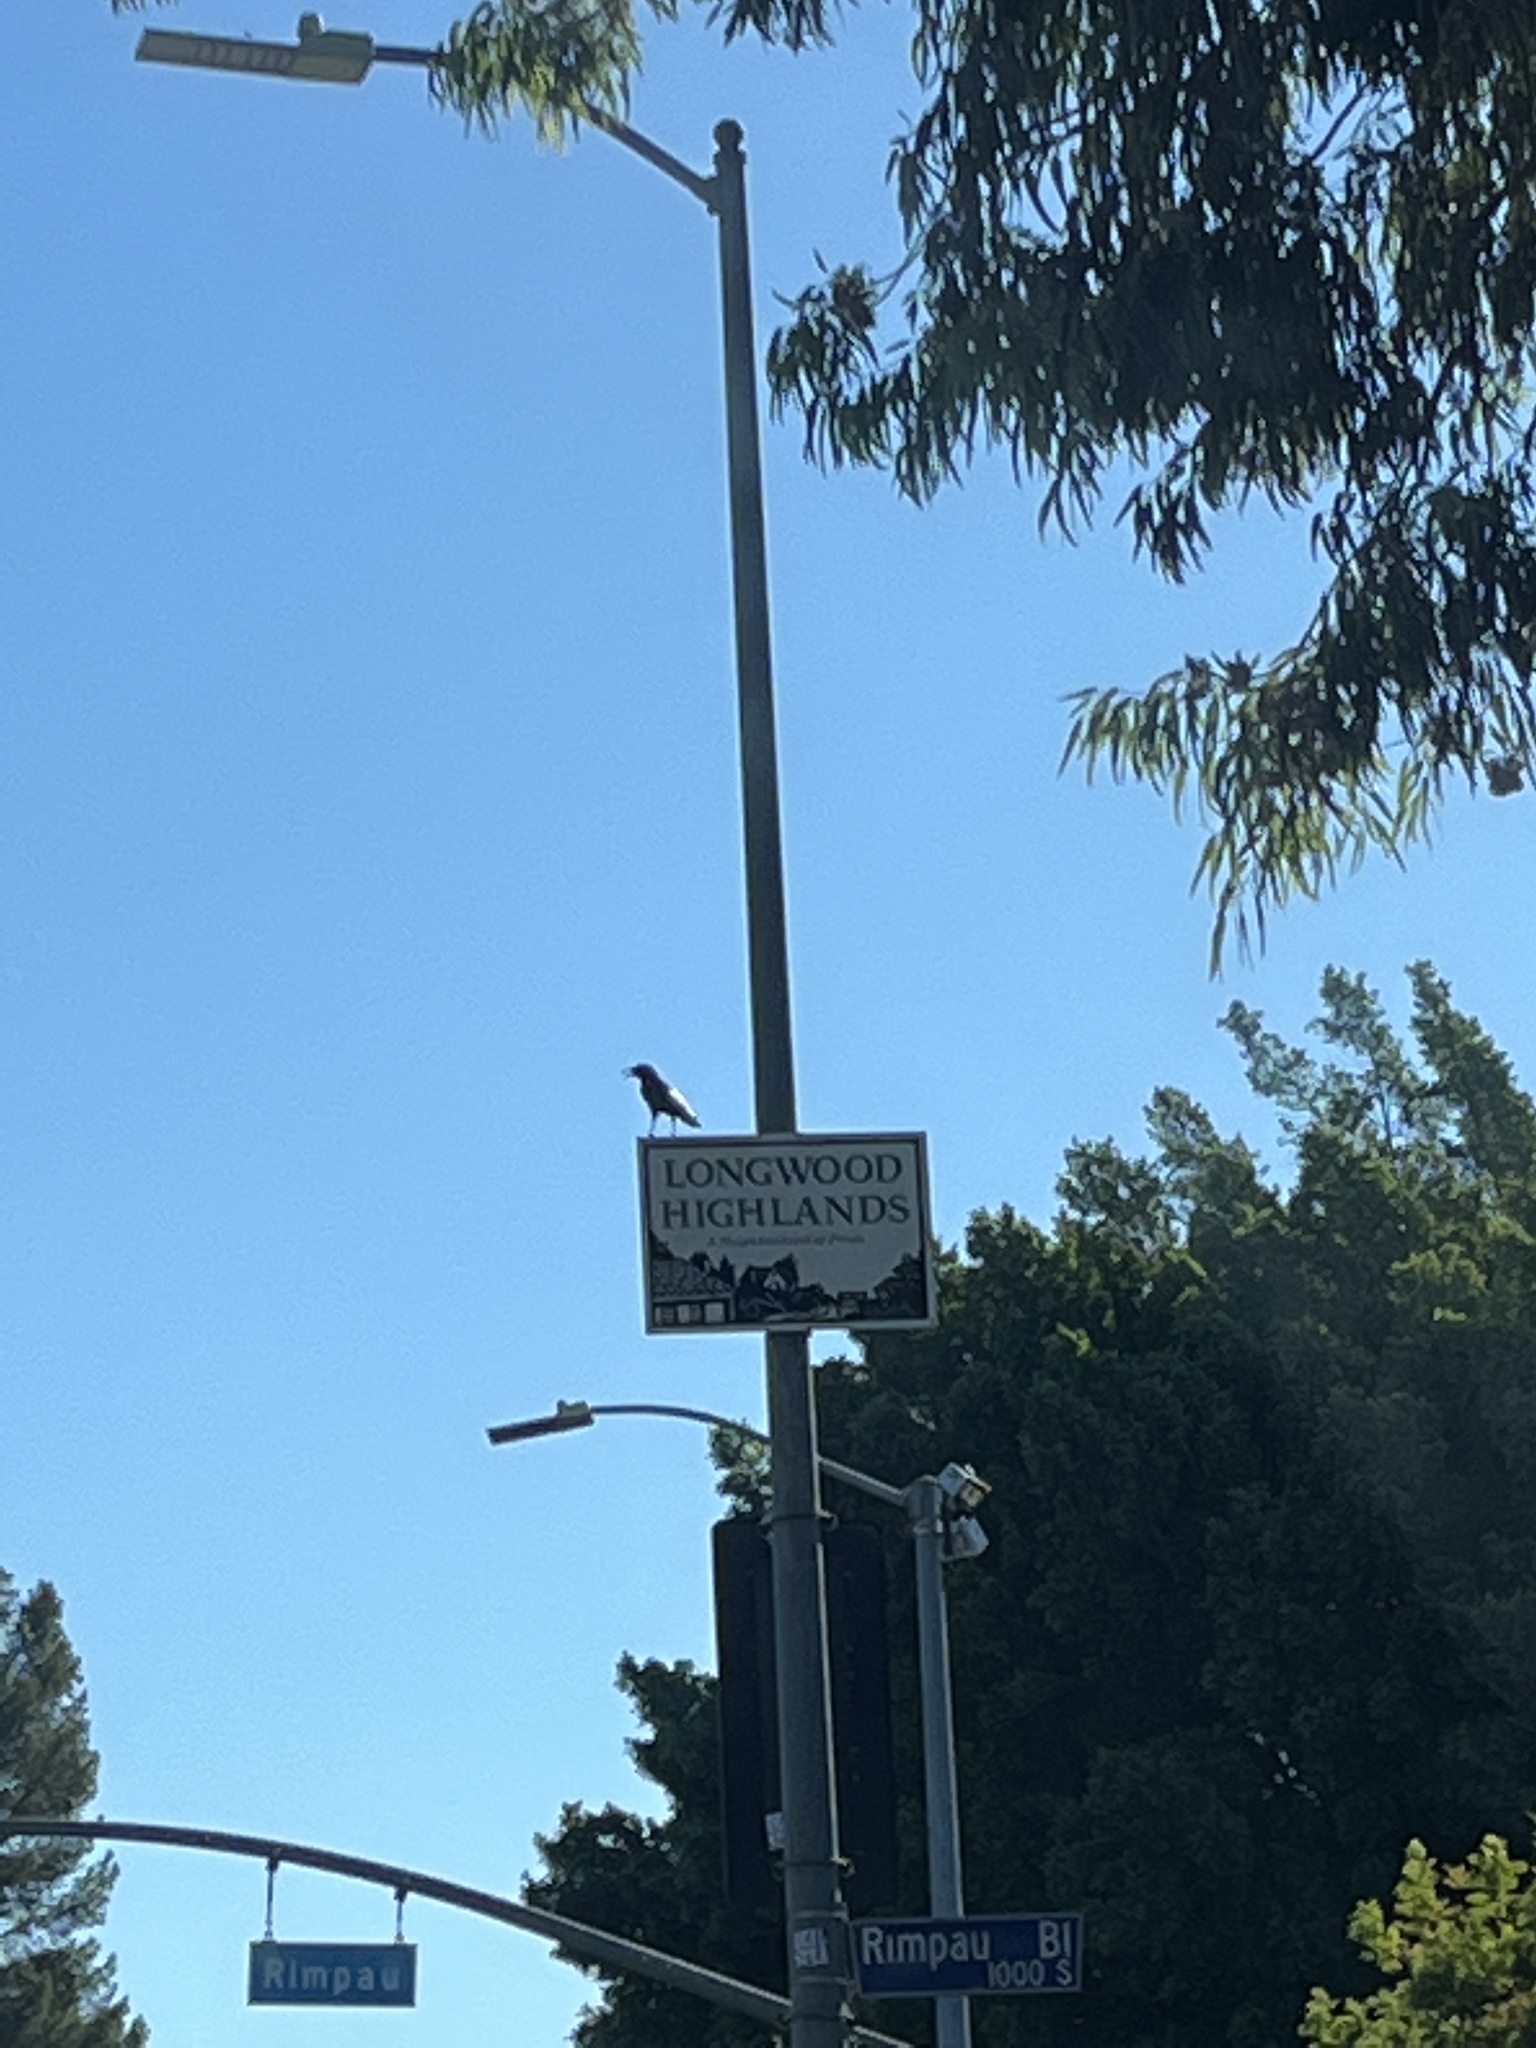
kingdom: Animalia
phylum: Chordata
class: Aves
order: Passeriformes
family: Corvidae
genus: Corvus
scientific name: Corvus brachyrhynchos
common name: American crow
